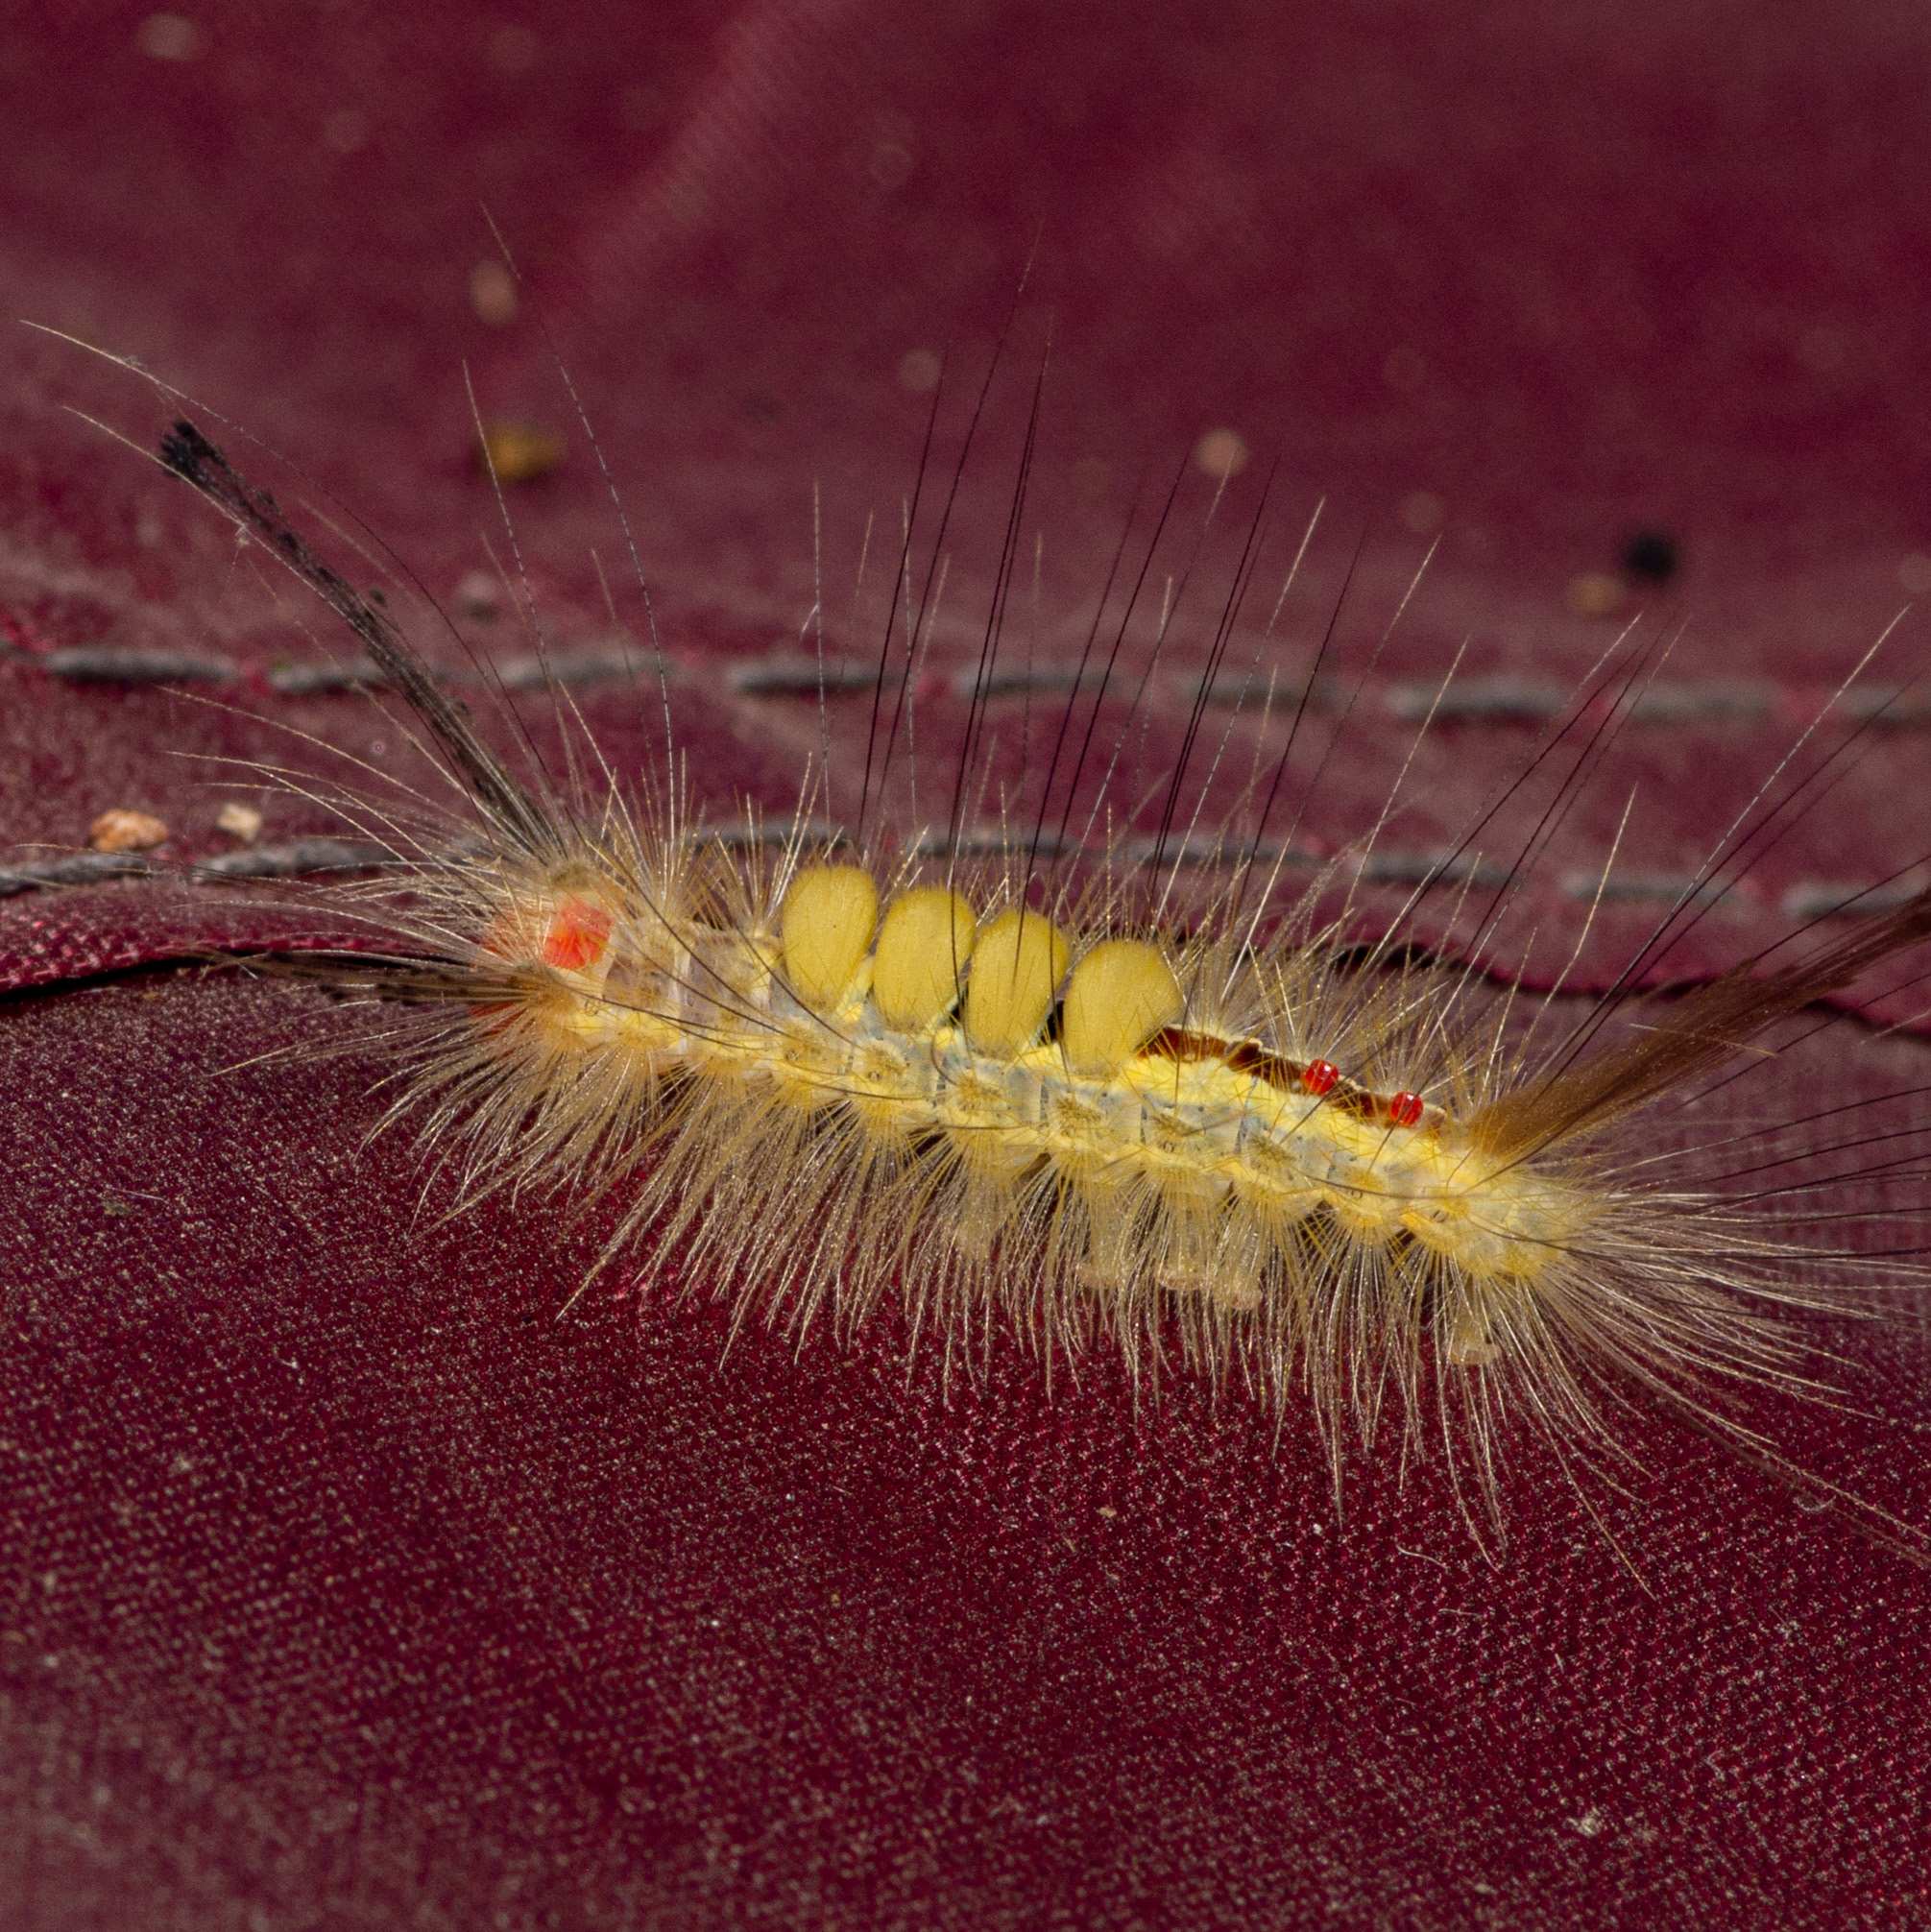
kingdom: Animalia
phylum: Arthropoda
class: Insecta
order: Lepidoptera
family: Erebidae
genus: Orgyia
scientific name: Orgyia leucostigma
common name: White-marked tussock moth
